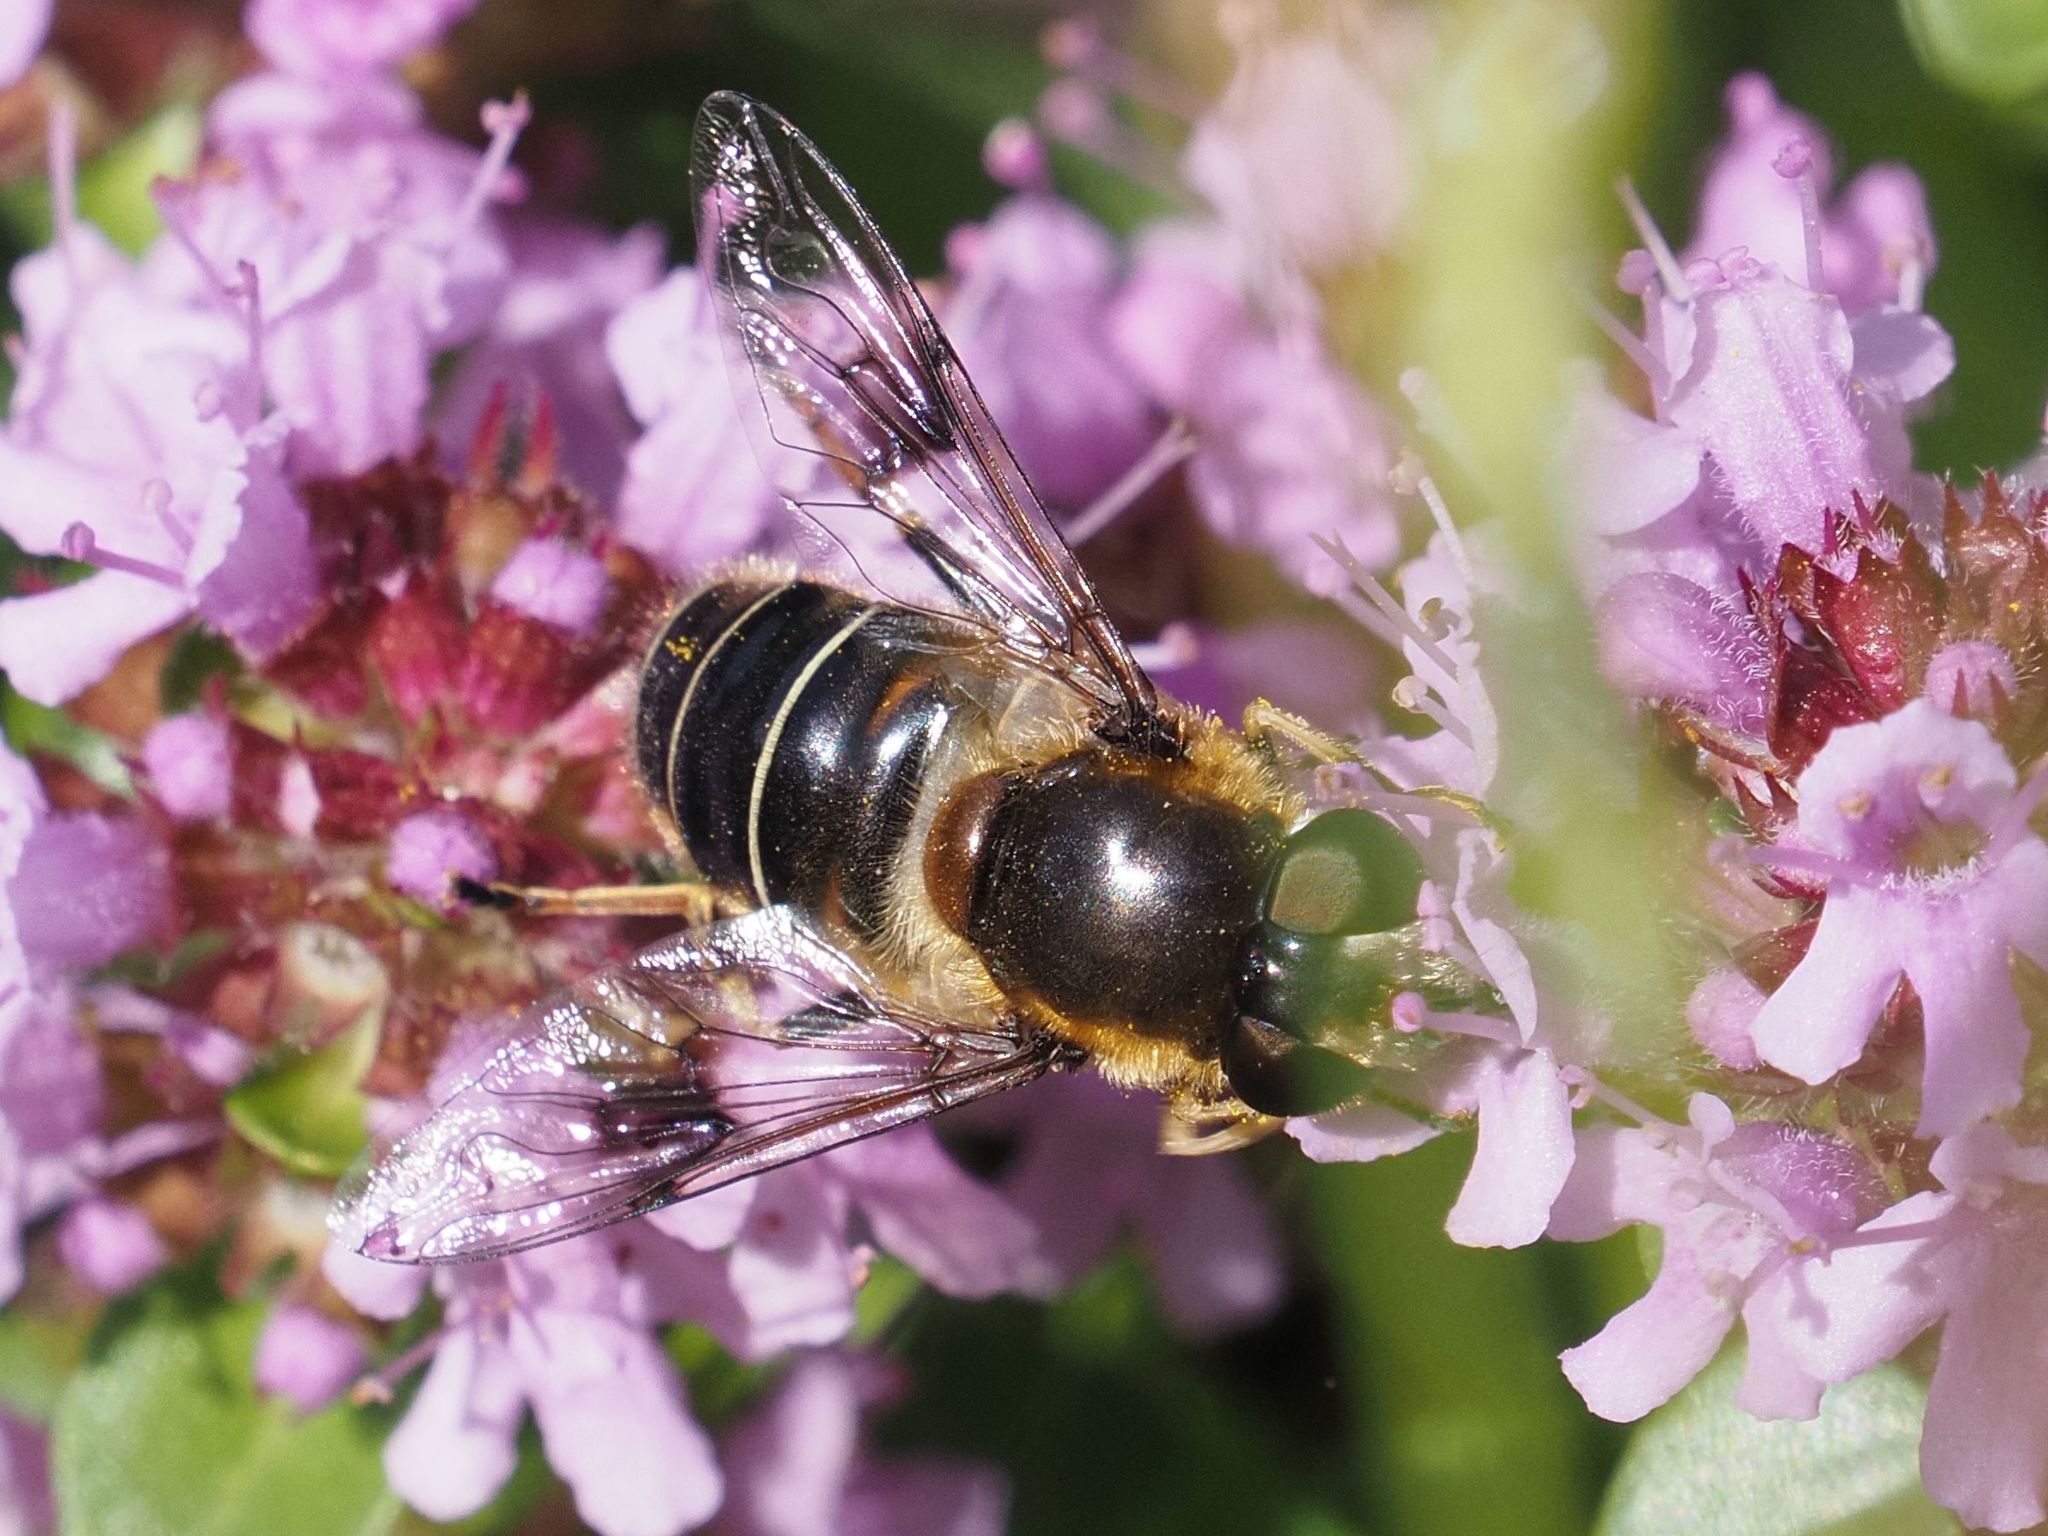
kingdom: Animalia
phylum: Arthropoda
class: Insecta
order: Diptera
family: Syrphidae
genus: Eristalis
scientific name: Eristalis rupium
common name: Hover fly
